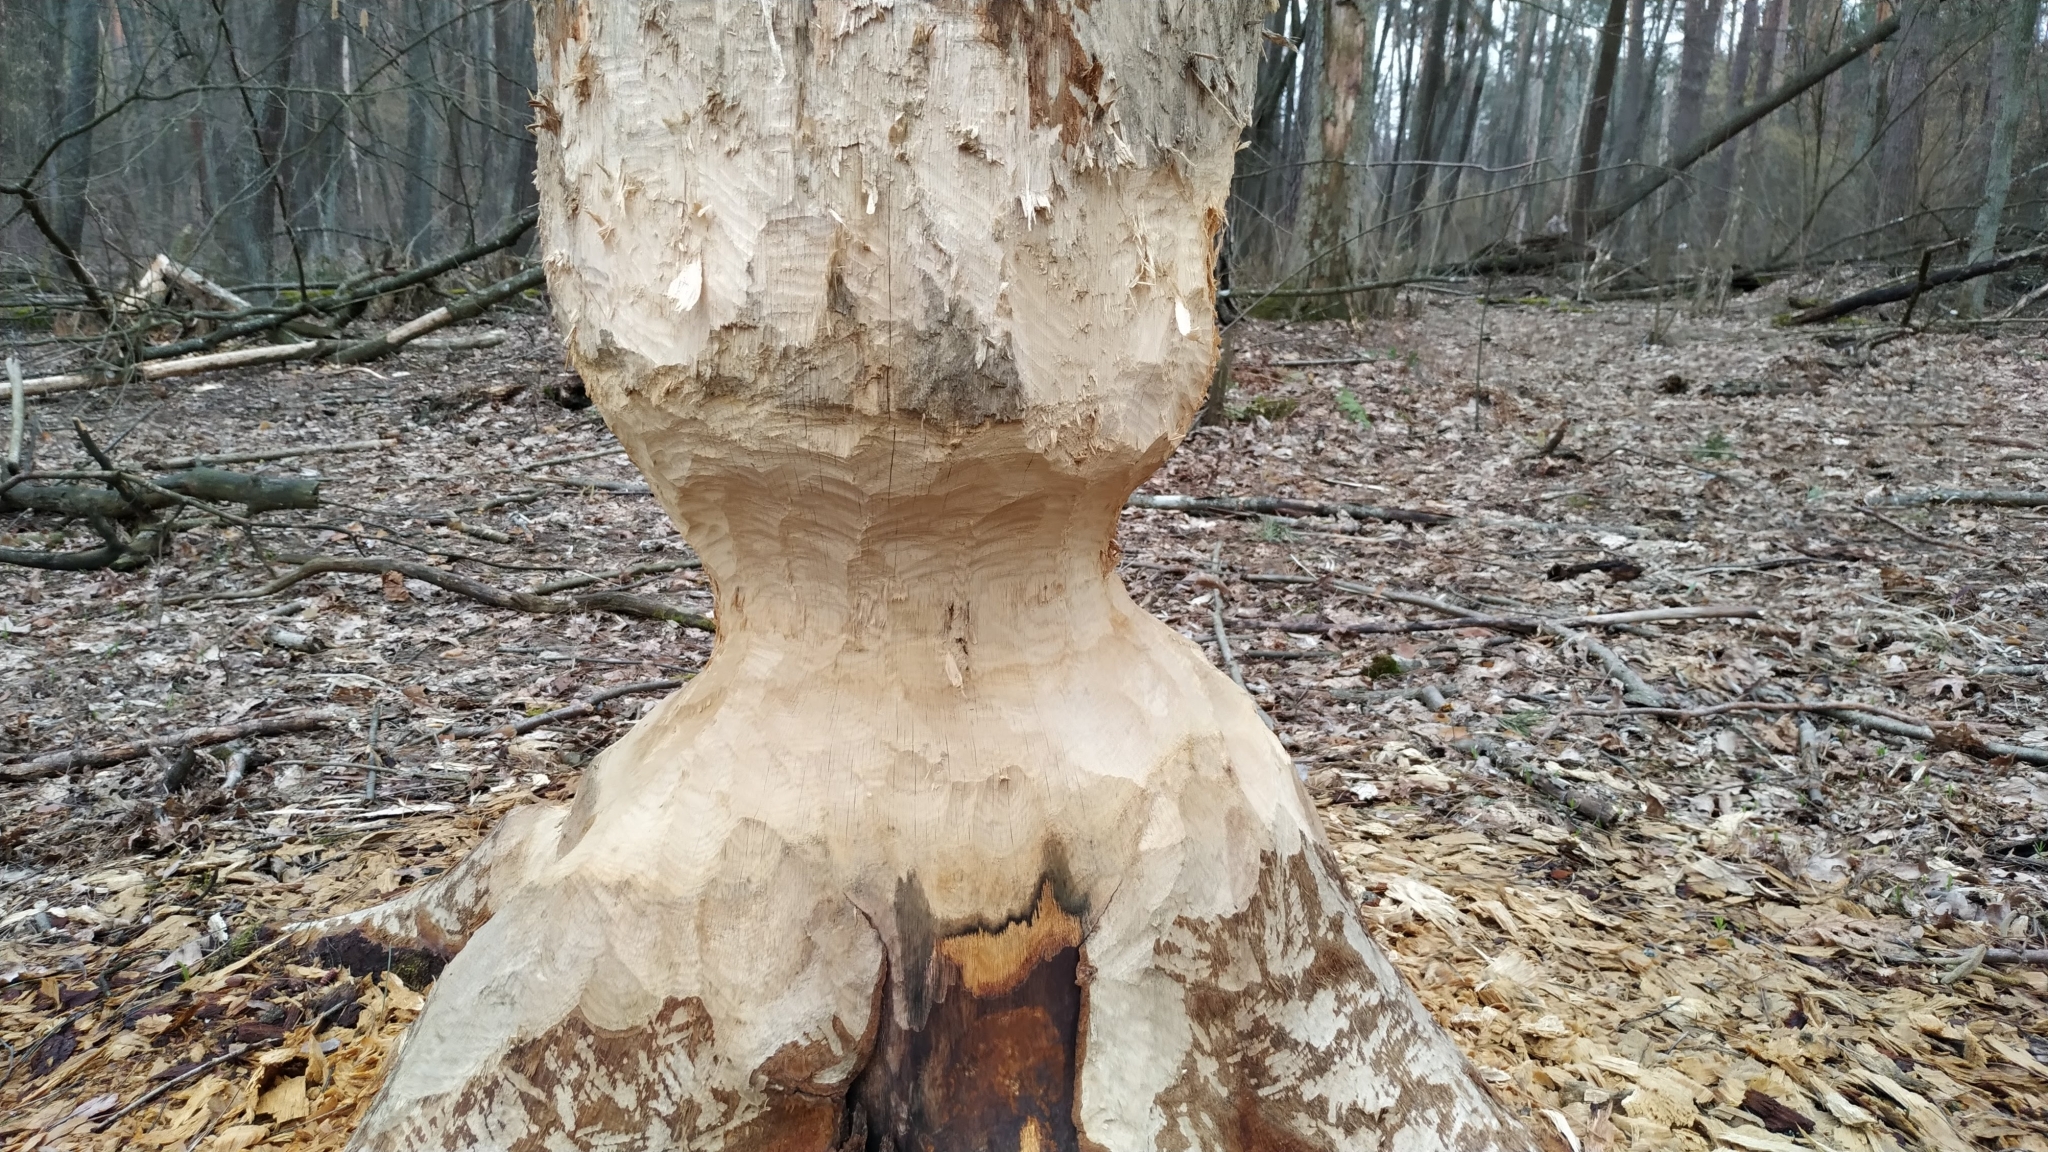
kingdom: Animalia
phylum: Chordata
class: Mammalia
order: Rodentia
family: Castoridae
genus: Castor
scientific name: Castor fiber
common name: Eurasian beaver
